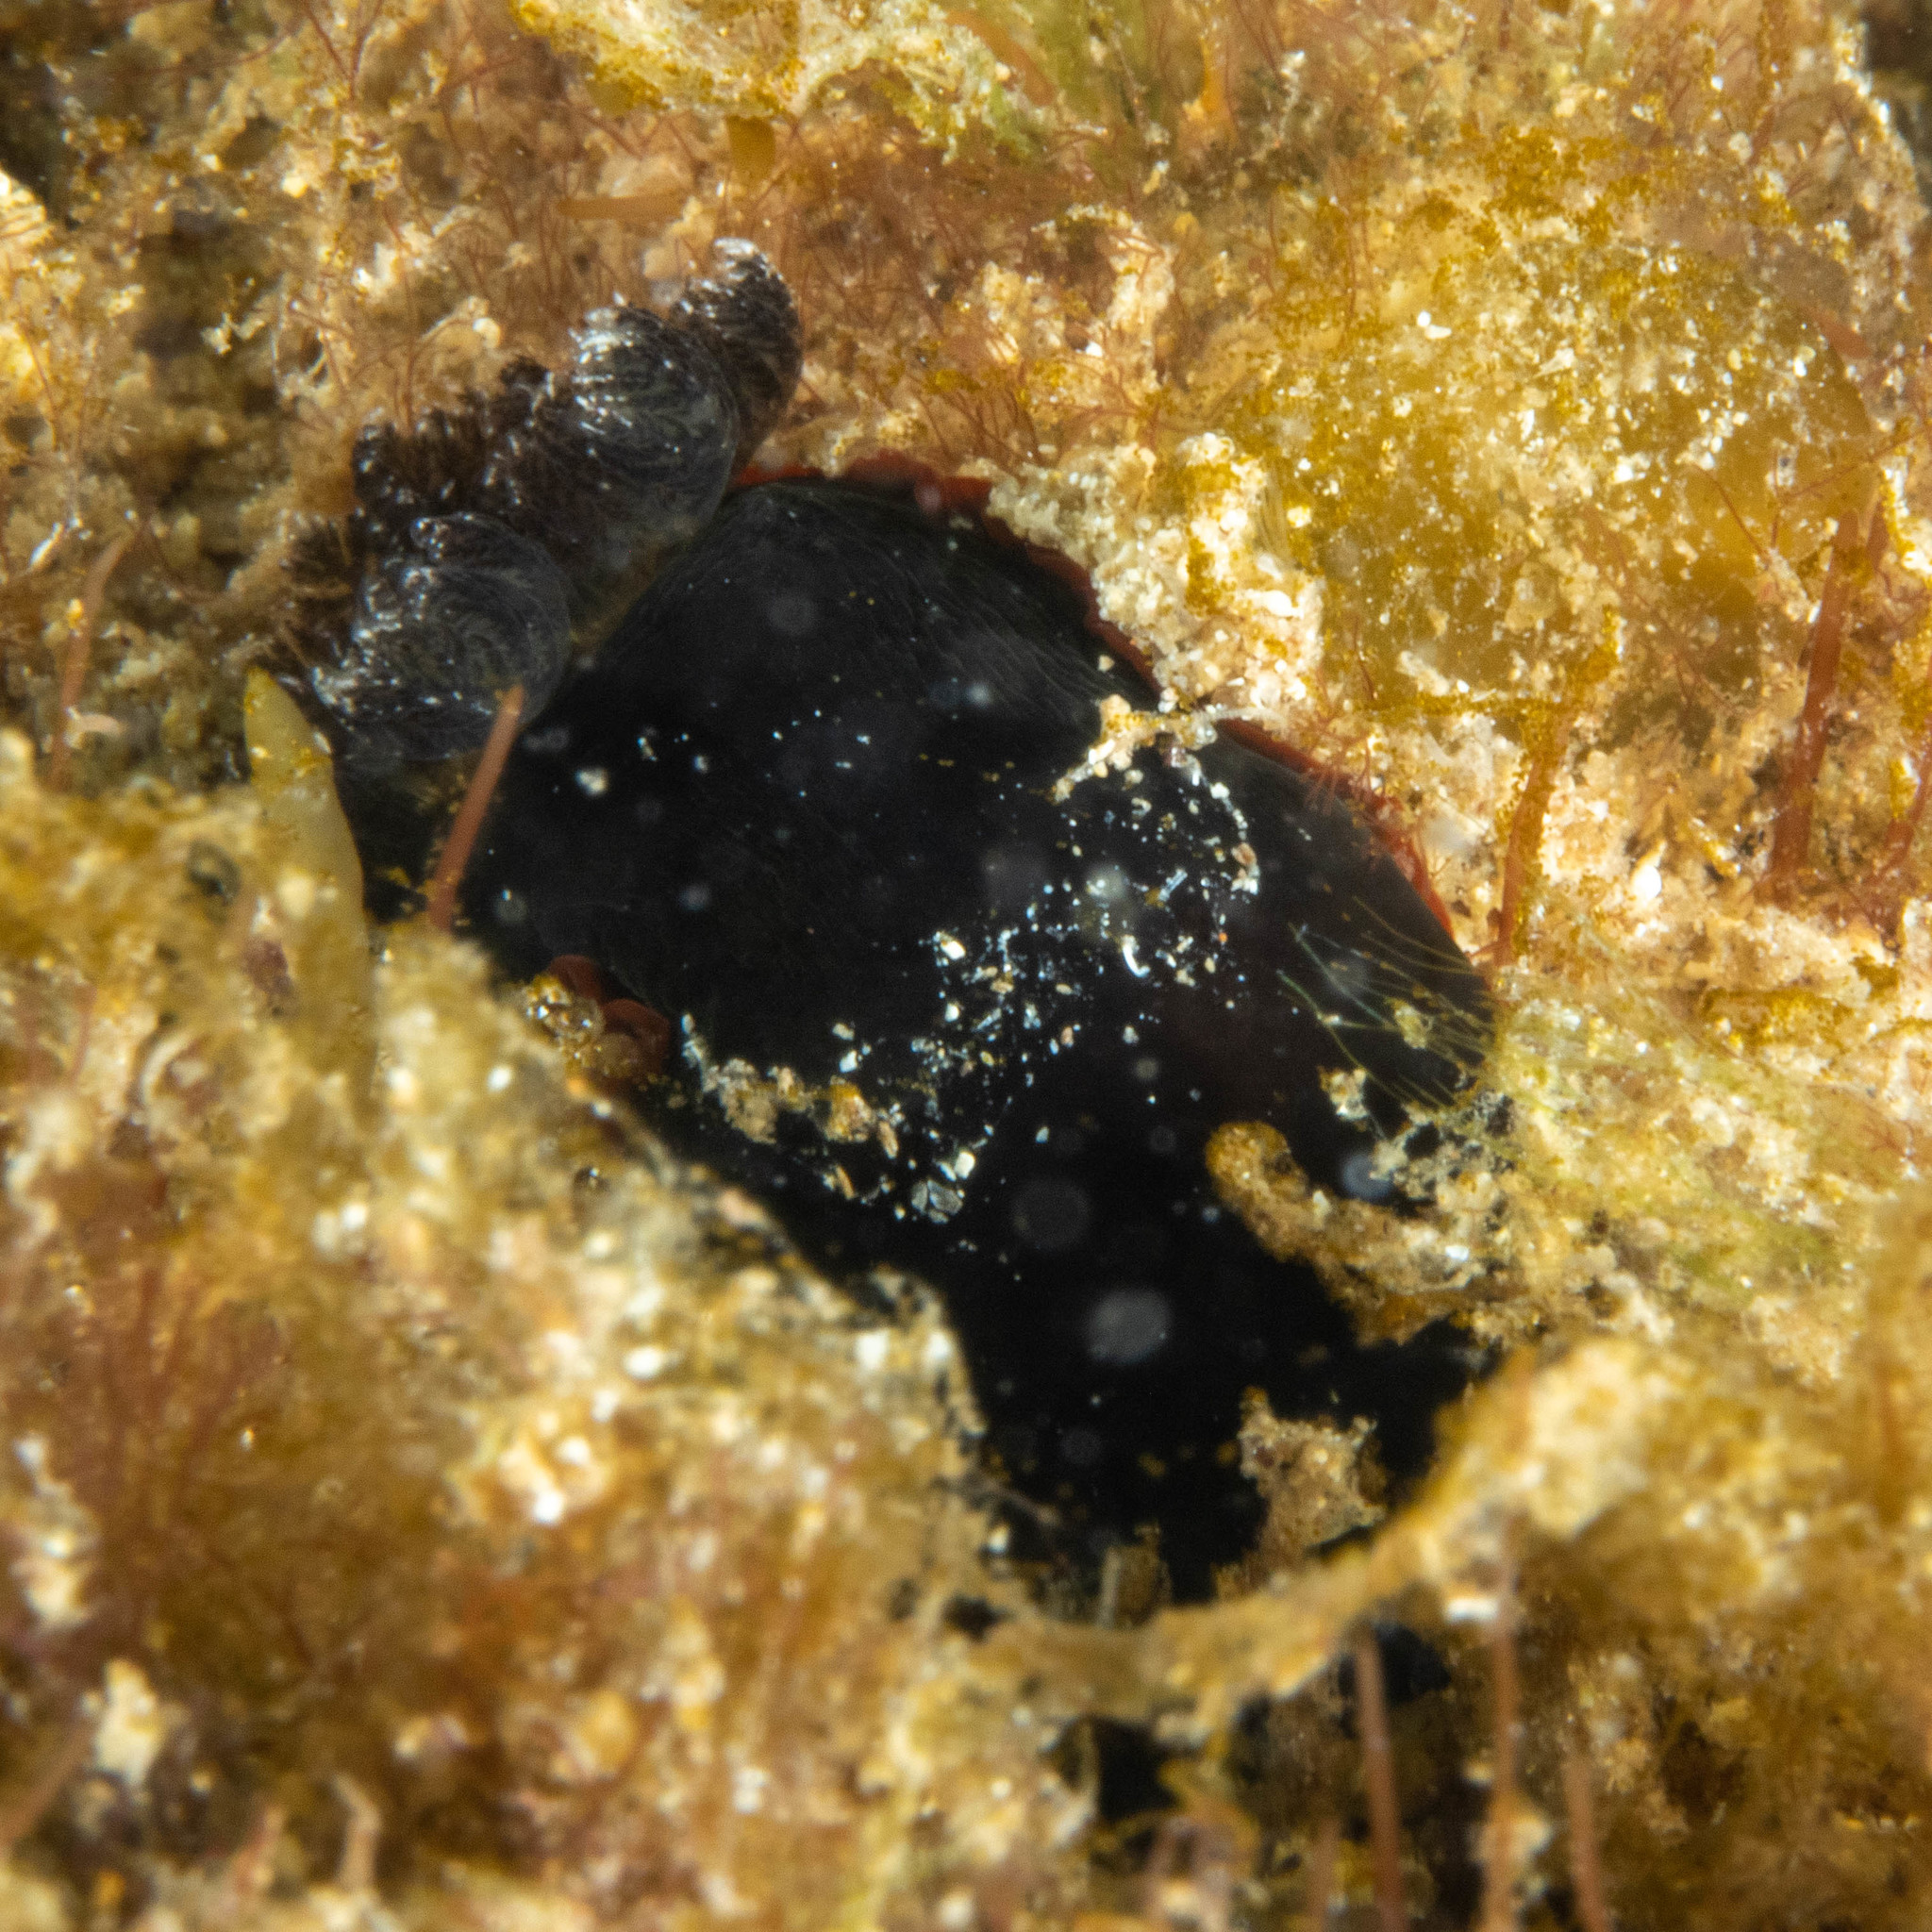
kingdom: Animalia
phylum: Mollusca
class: Gastropoda
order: Nudibranchia
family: Dendrodorididae
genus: Dendrodoris
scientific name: Dendrodoris arborescens
